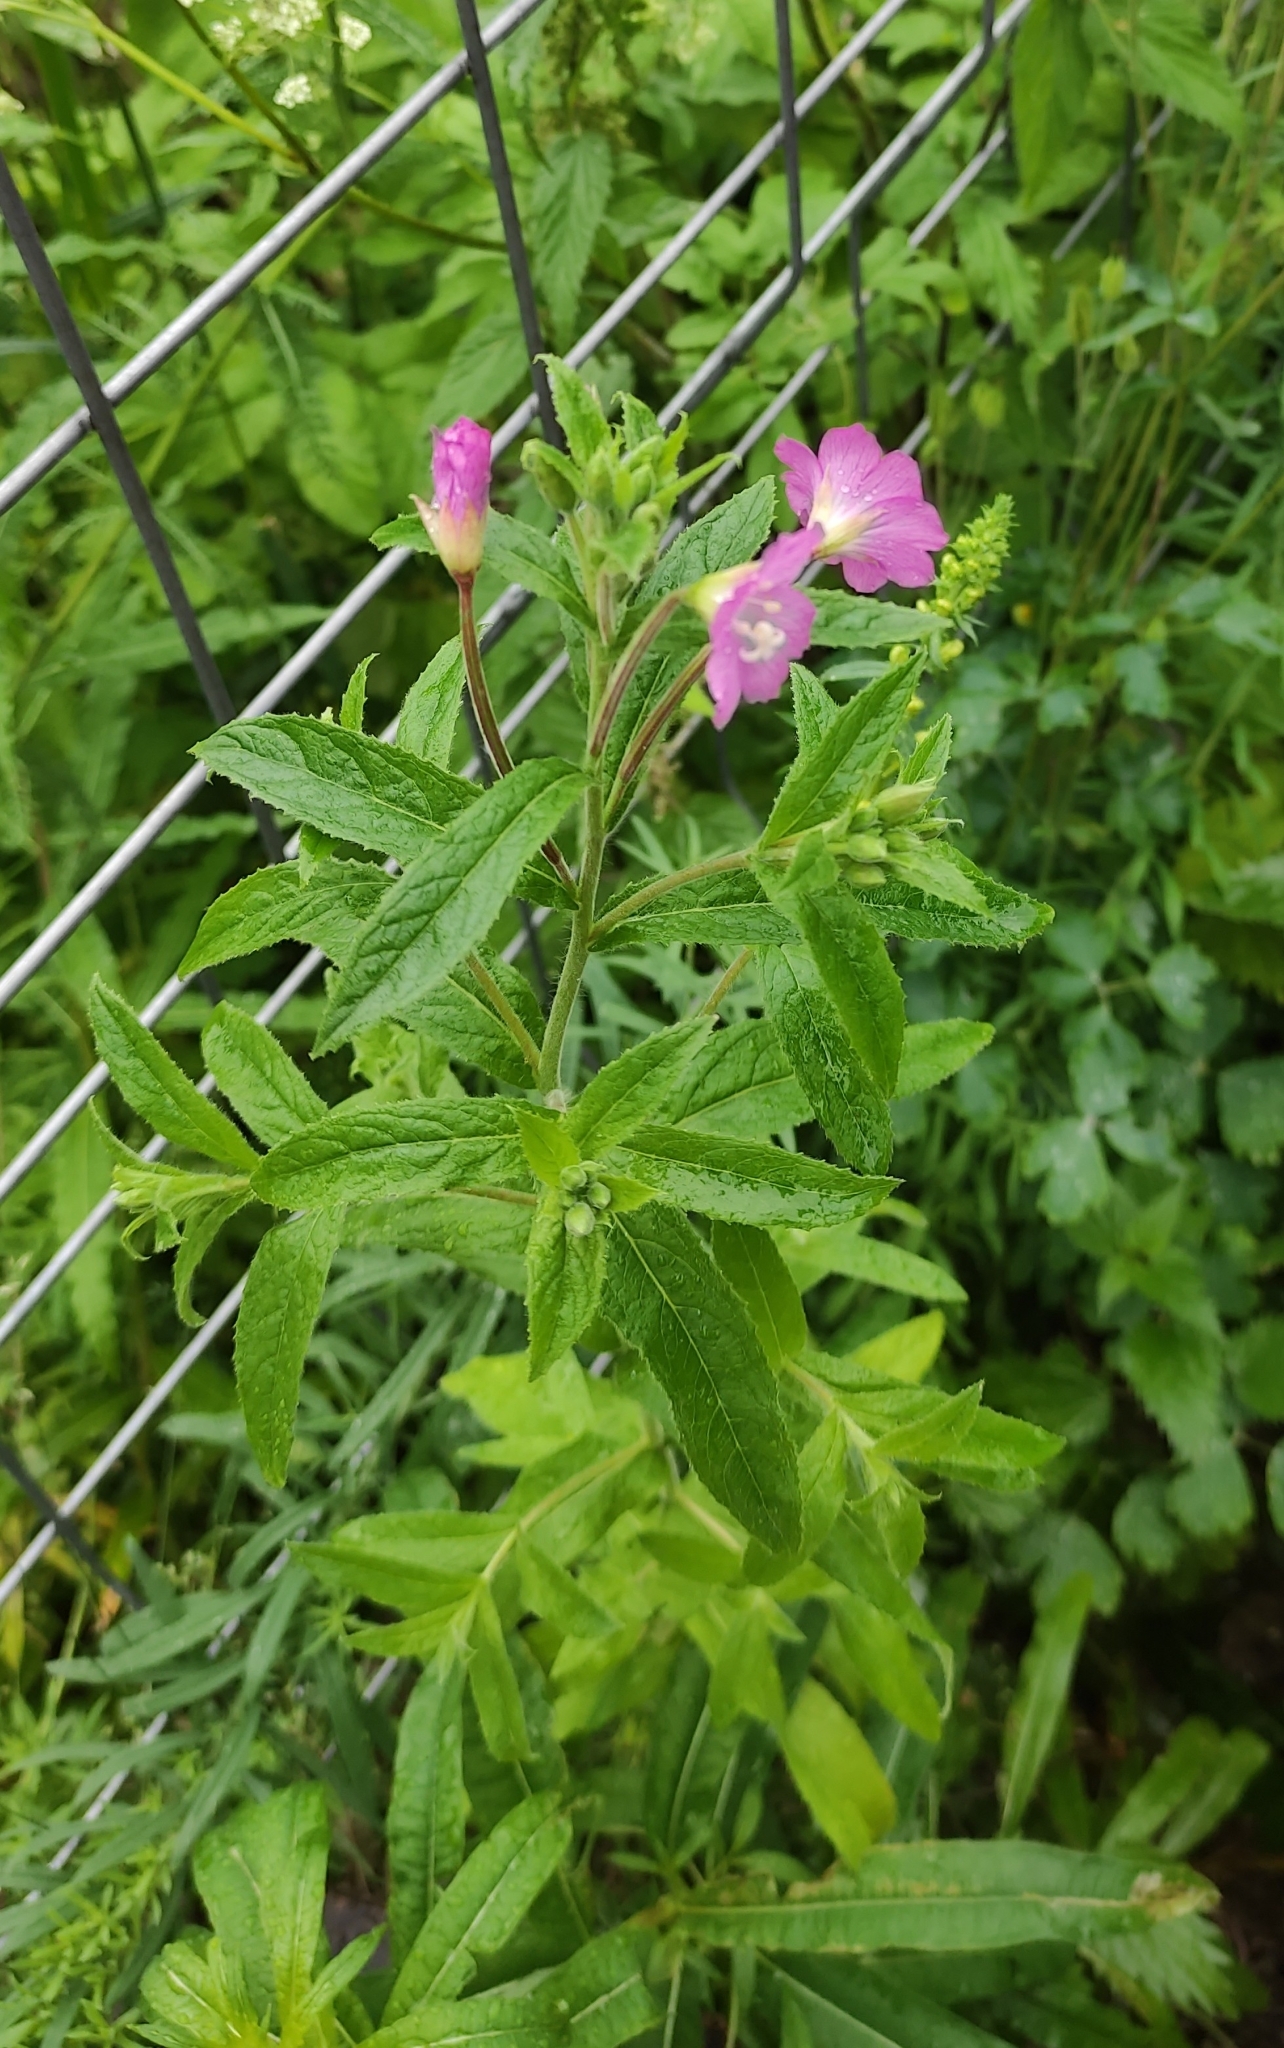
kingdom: Plantae
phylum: Tracheophyta
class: Magnoliopsida
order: Myrtales
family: Onagraceae
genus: Epilobium
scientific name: Epilobium hirsutum
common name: Great willowherb
